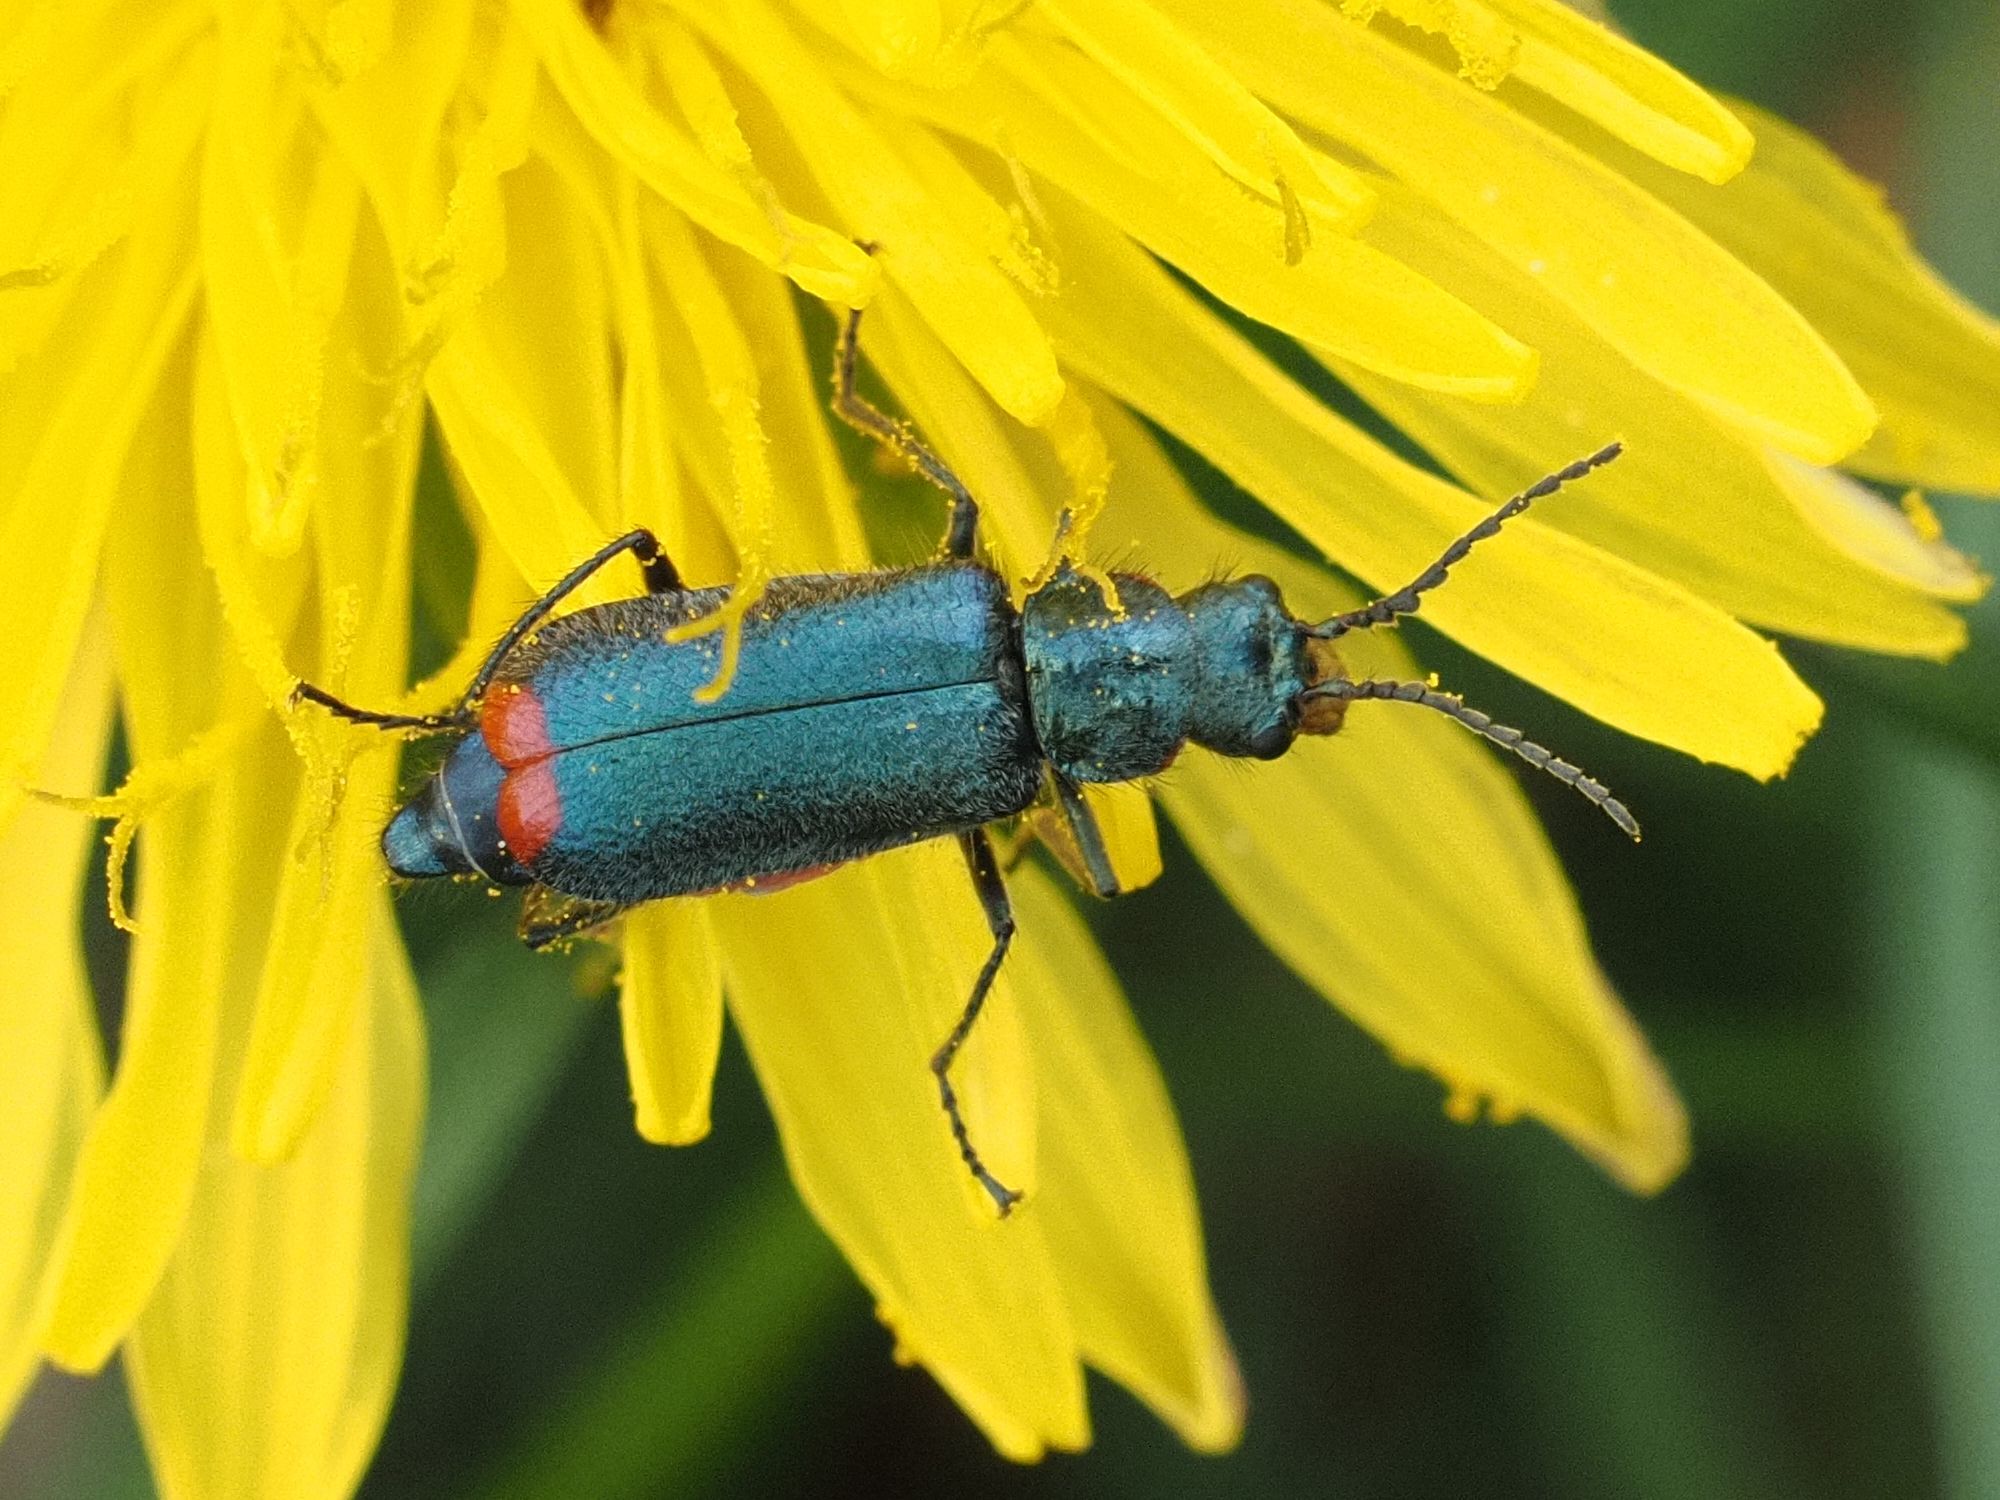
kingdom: Animalia
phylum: Arthropoda
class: Insecta
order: Coleoptera
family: Melyridae
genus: Malachius
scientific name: Malachius bipustulatus
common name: Malachite beetle
